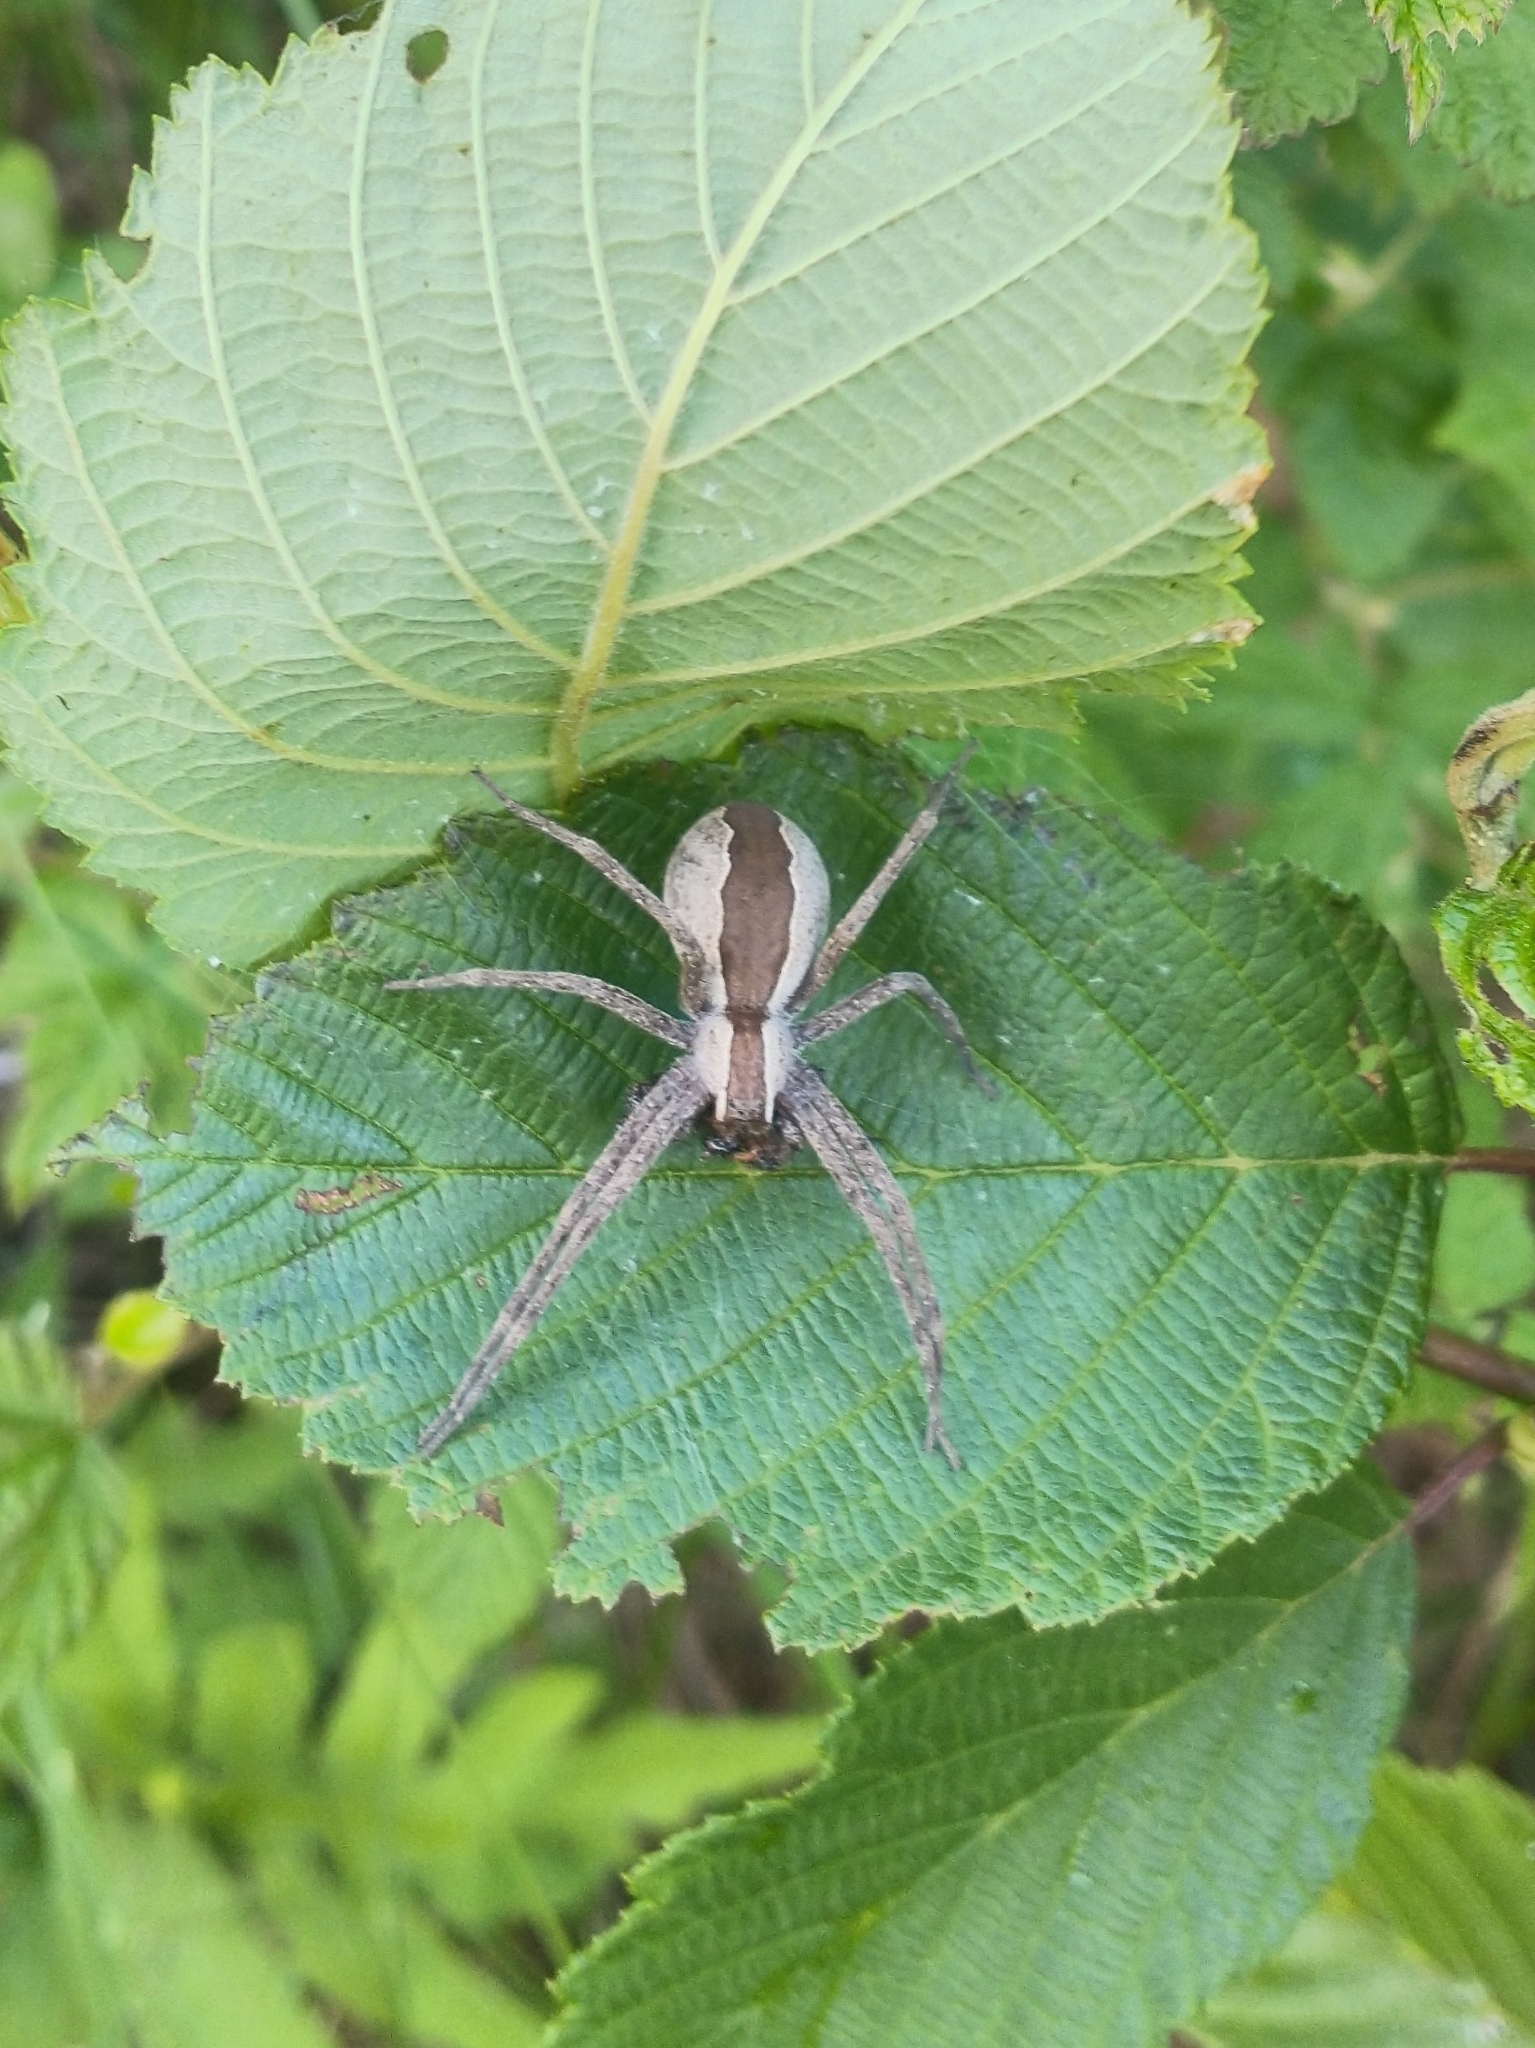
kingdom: Animalia
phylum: Arthropoda
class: Arachnida
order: Araneae
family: Pisauridae
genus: Pisaurina
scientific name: Pisaurina mira
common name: American nursery web spider
